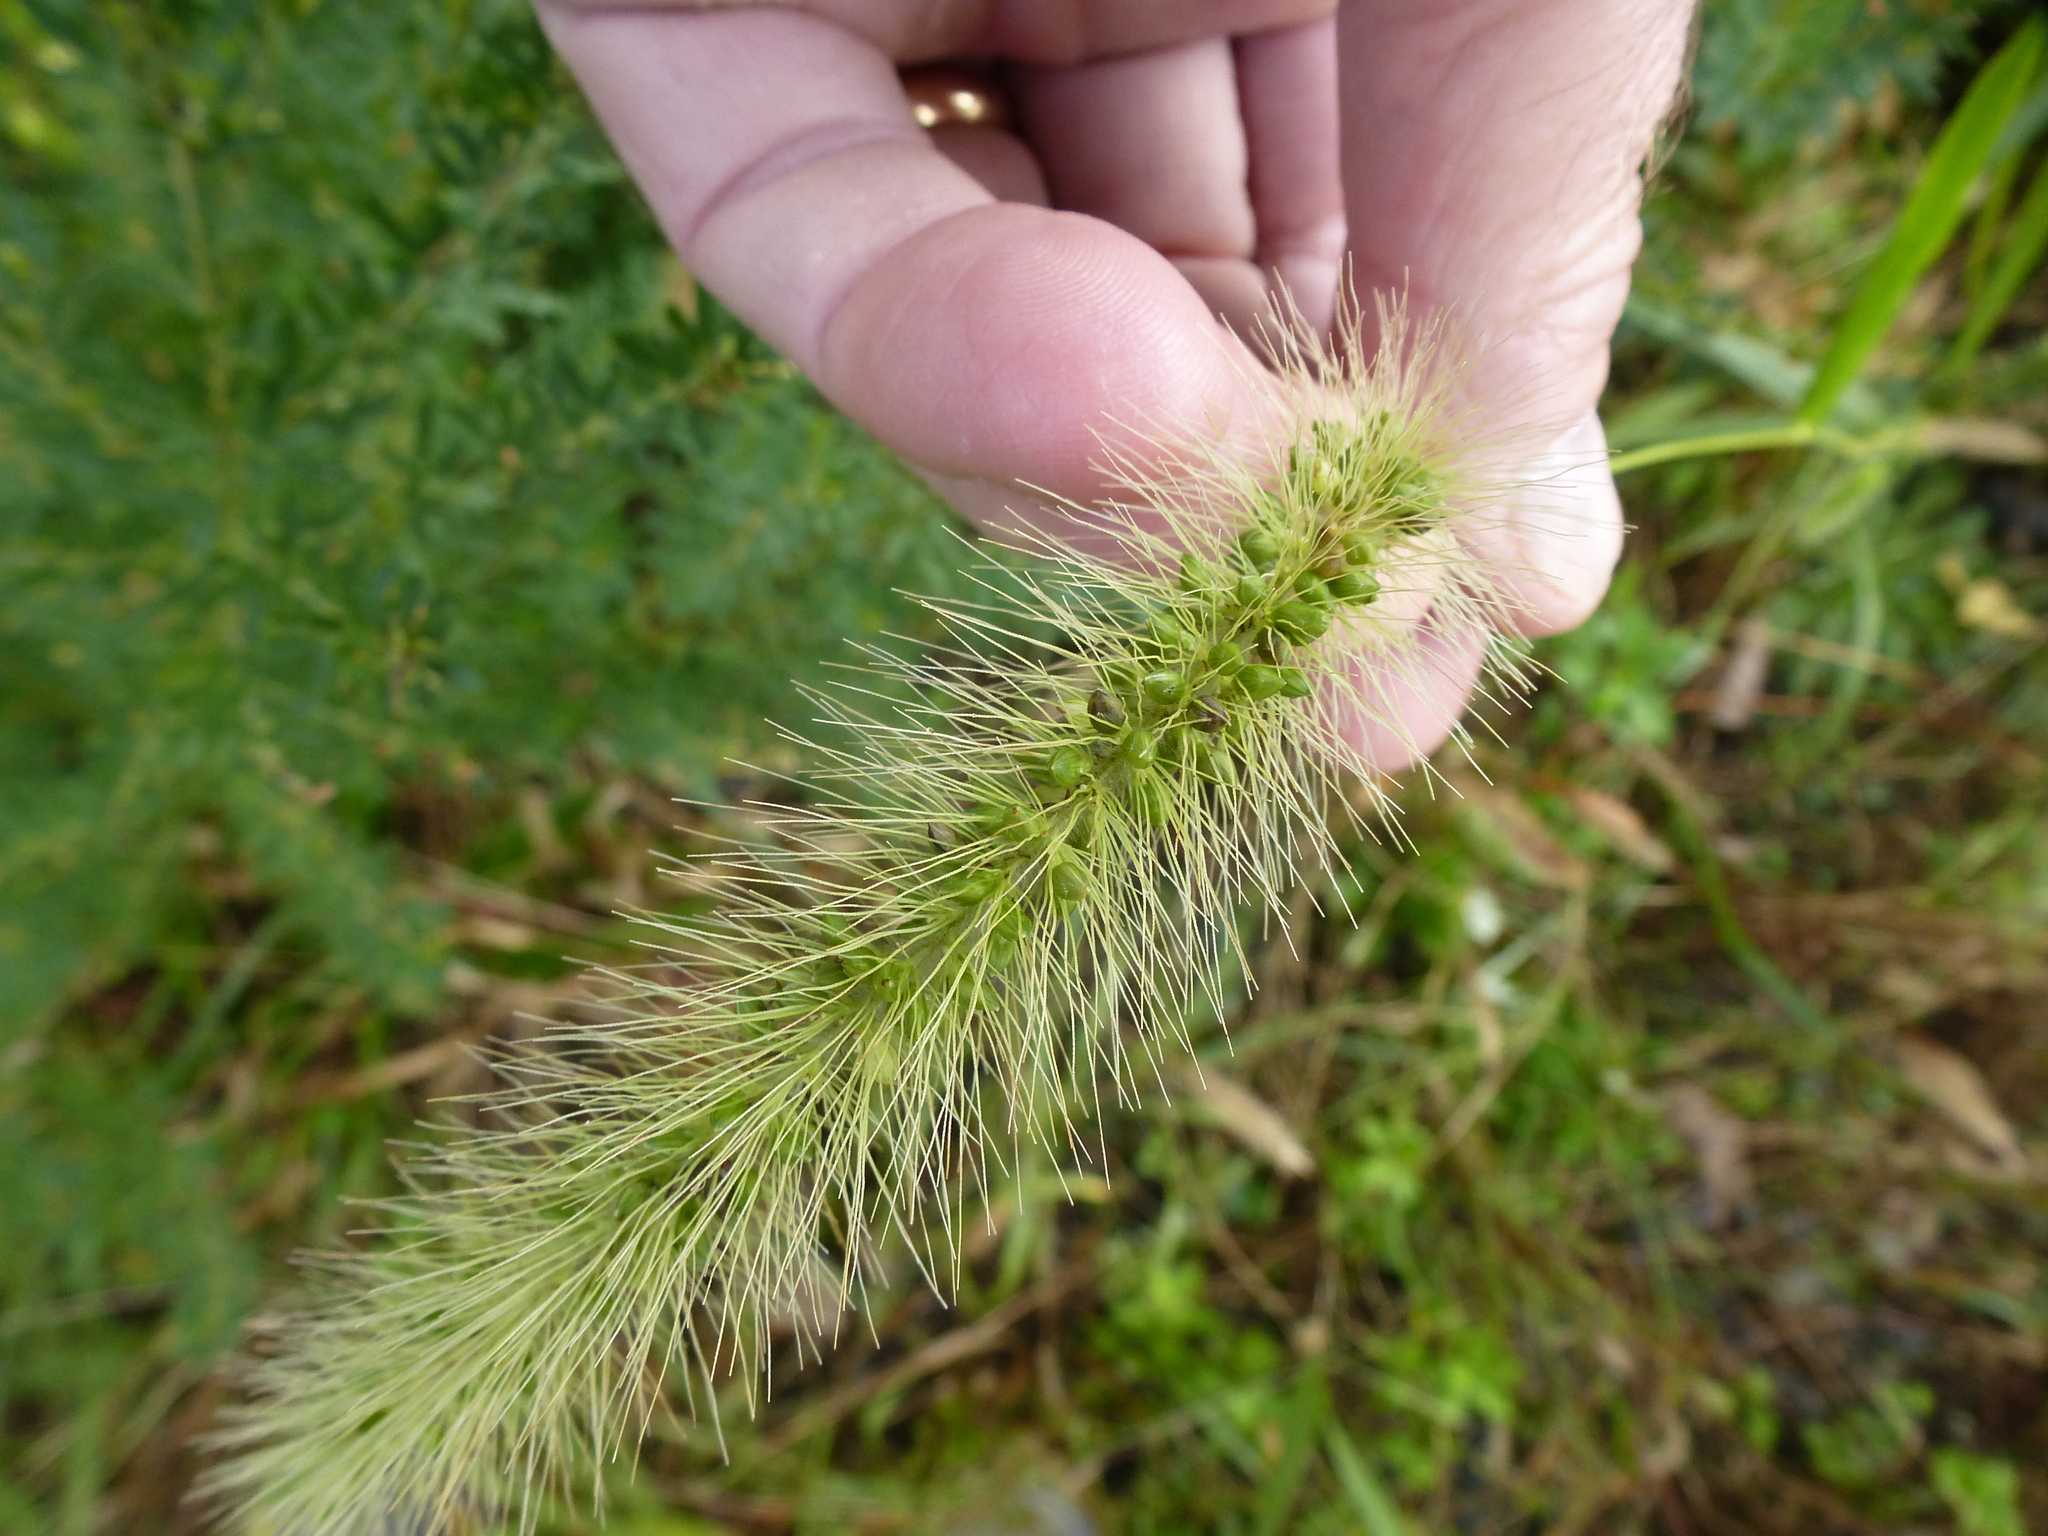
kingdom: Plantae
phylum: Tracheophyta
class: Liliopsida
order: Poales
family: Poaceae
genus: Setaria
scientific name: Setaria faberi
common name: Nodding bristle-grass
